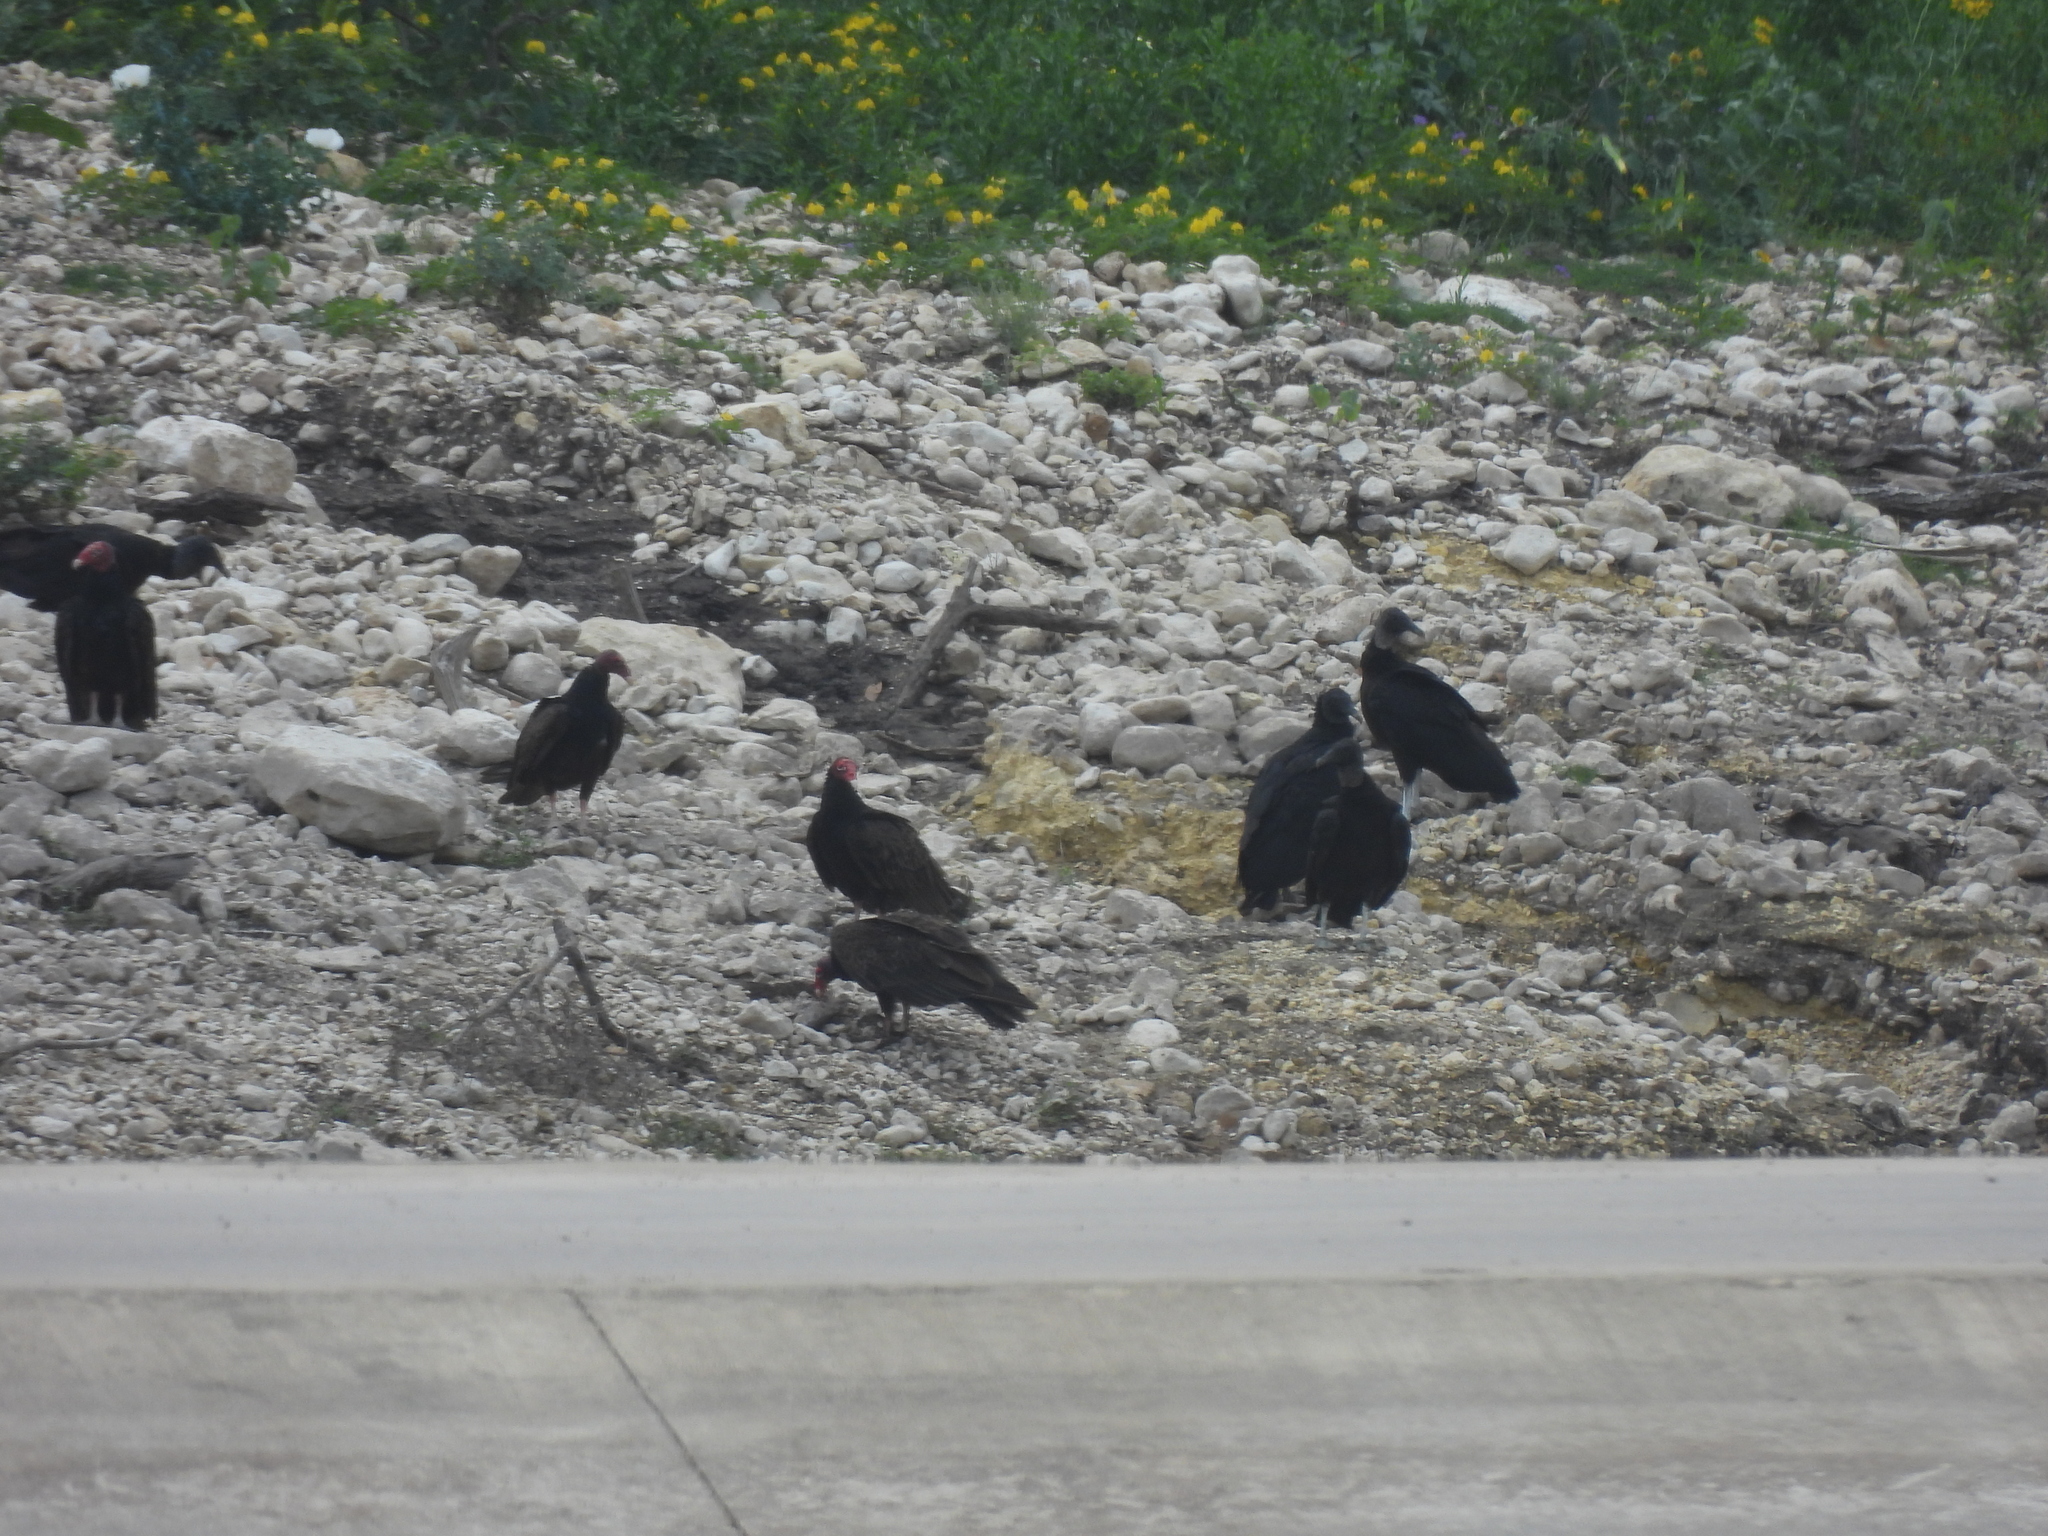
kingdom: Animalia
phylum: Chordata
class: Aves
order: Accipitriformes
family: Cathartidae
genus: Cathartes
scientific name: Cathartes aura
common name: Turkey vulture
